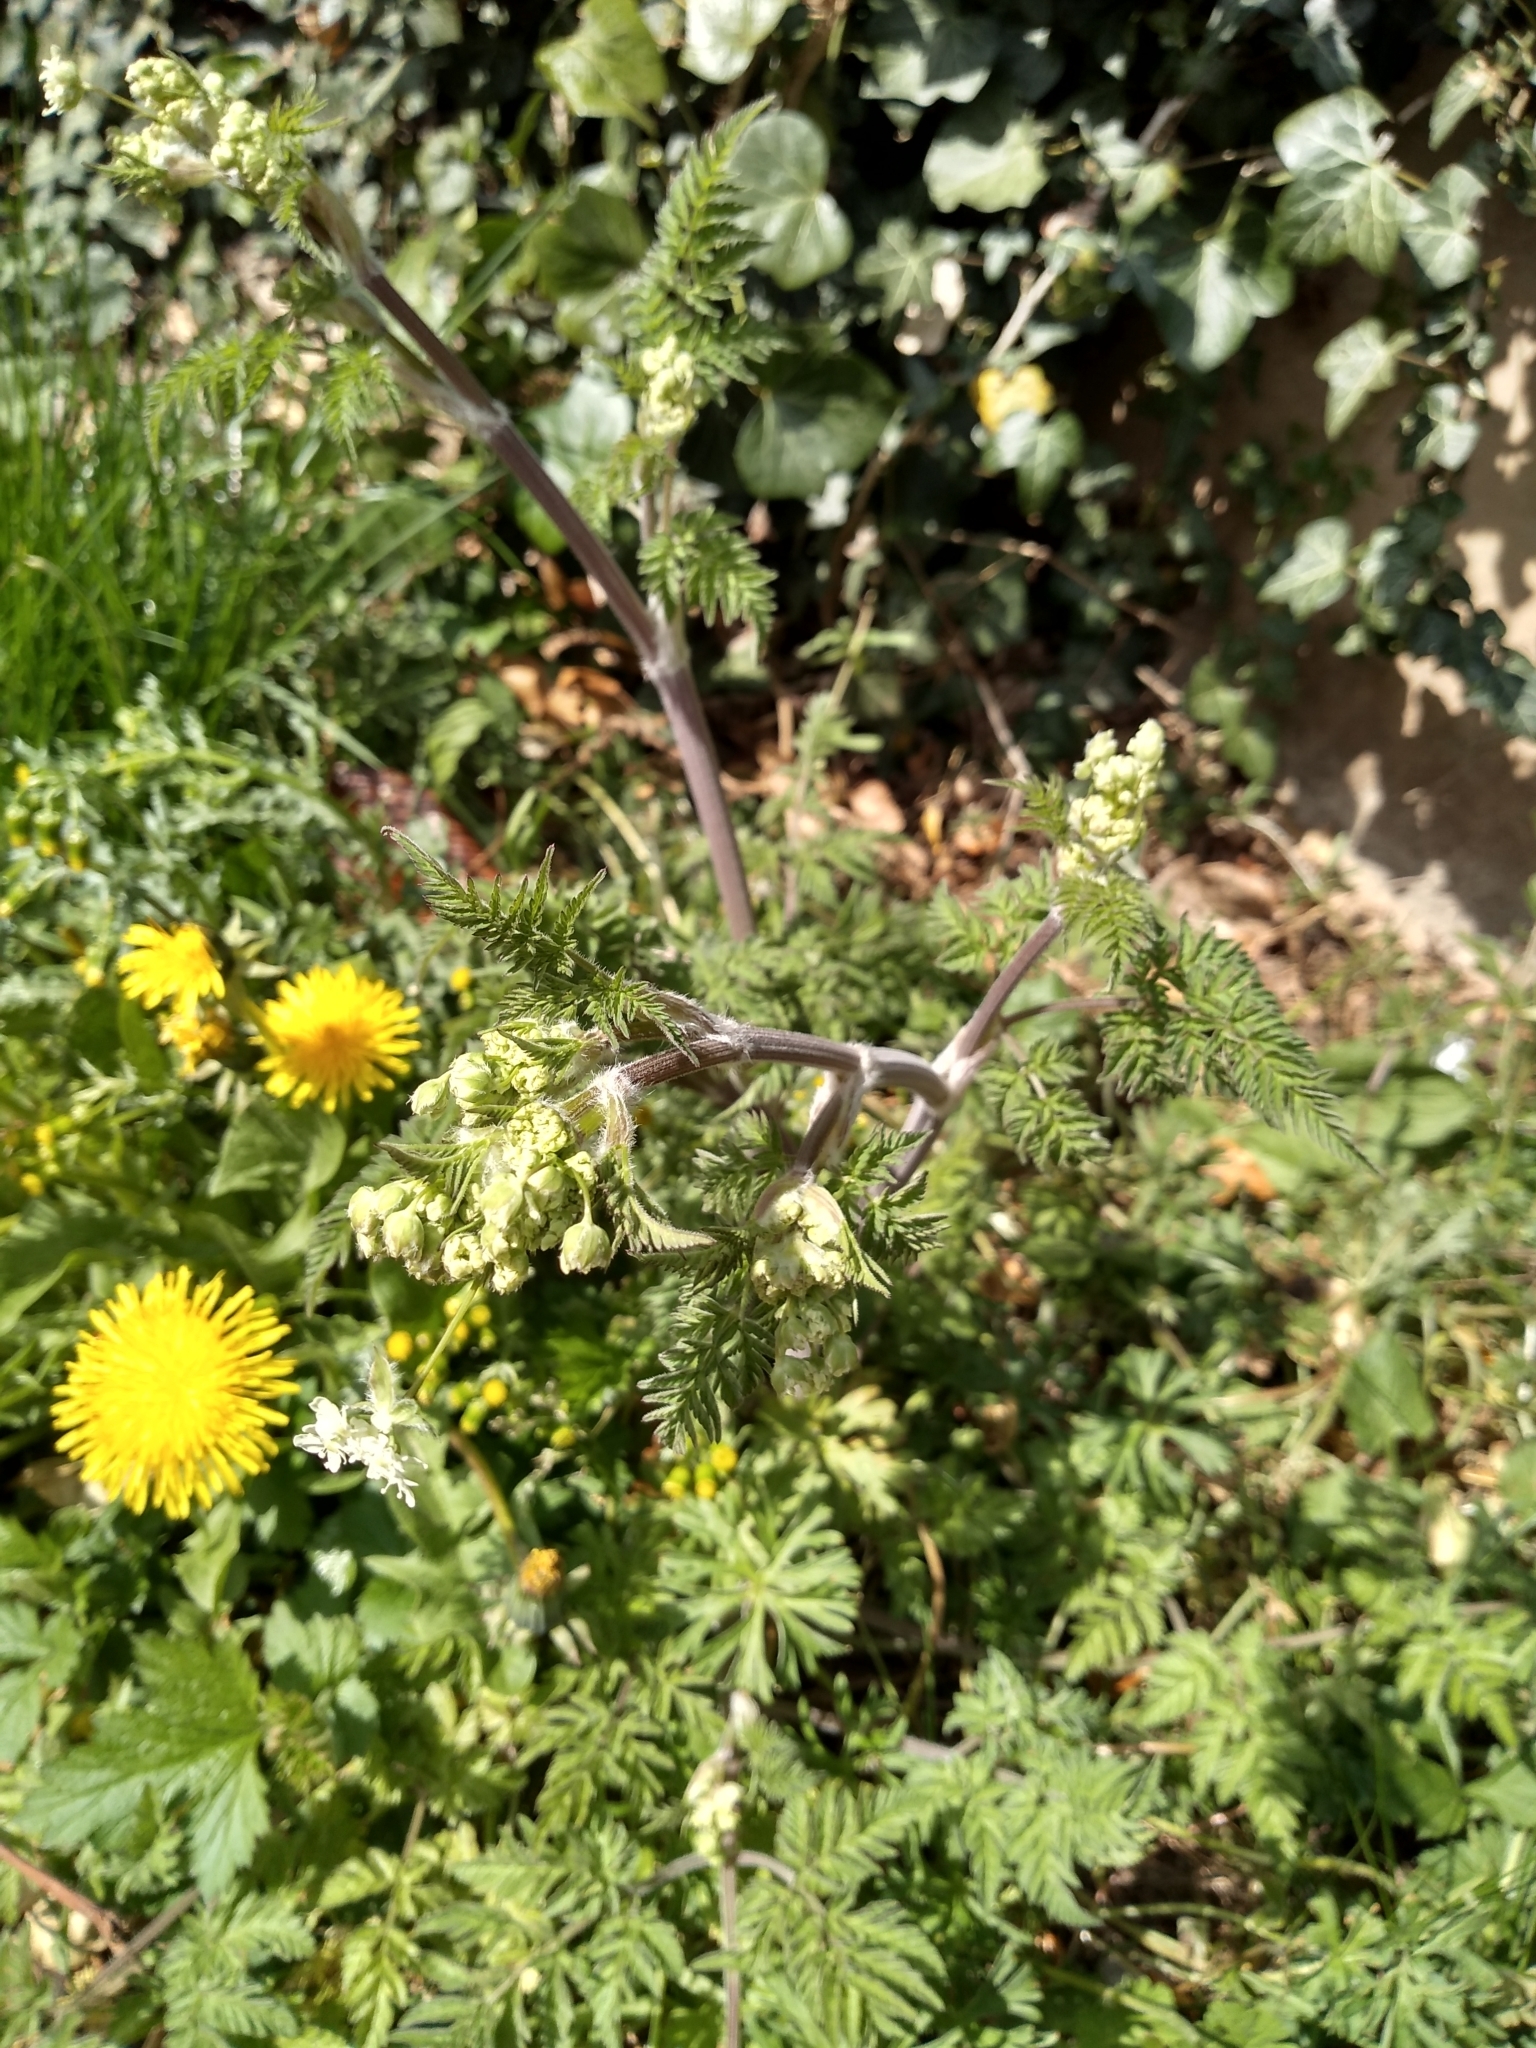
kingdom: Plantae
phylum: Tracheophyta
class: Magnoliopsida
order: Apiales
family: Apiaceae
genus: Anthriscus
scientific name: Anthriscus sylvestris
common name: Cow parsley
